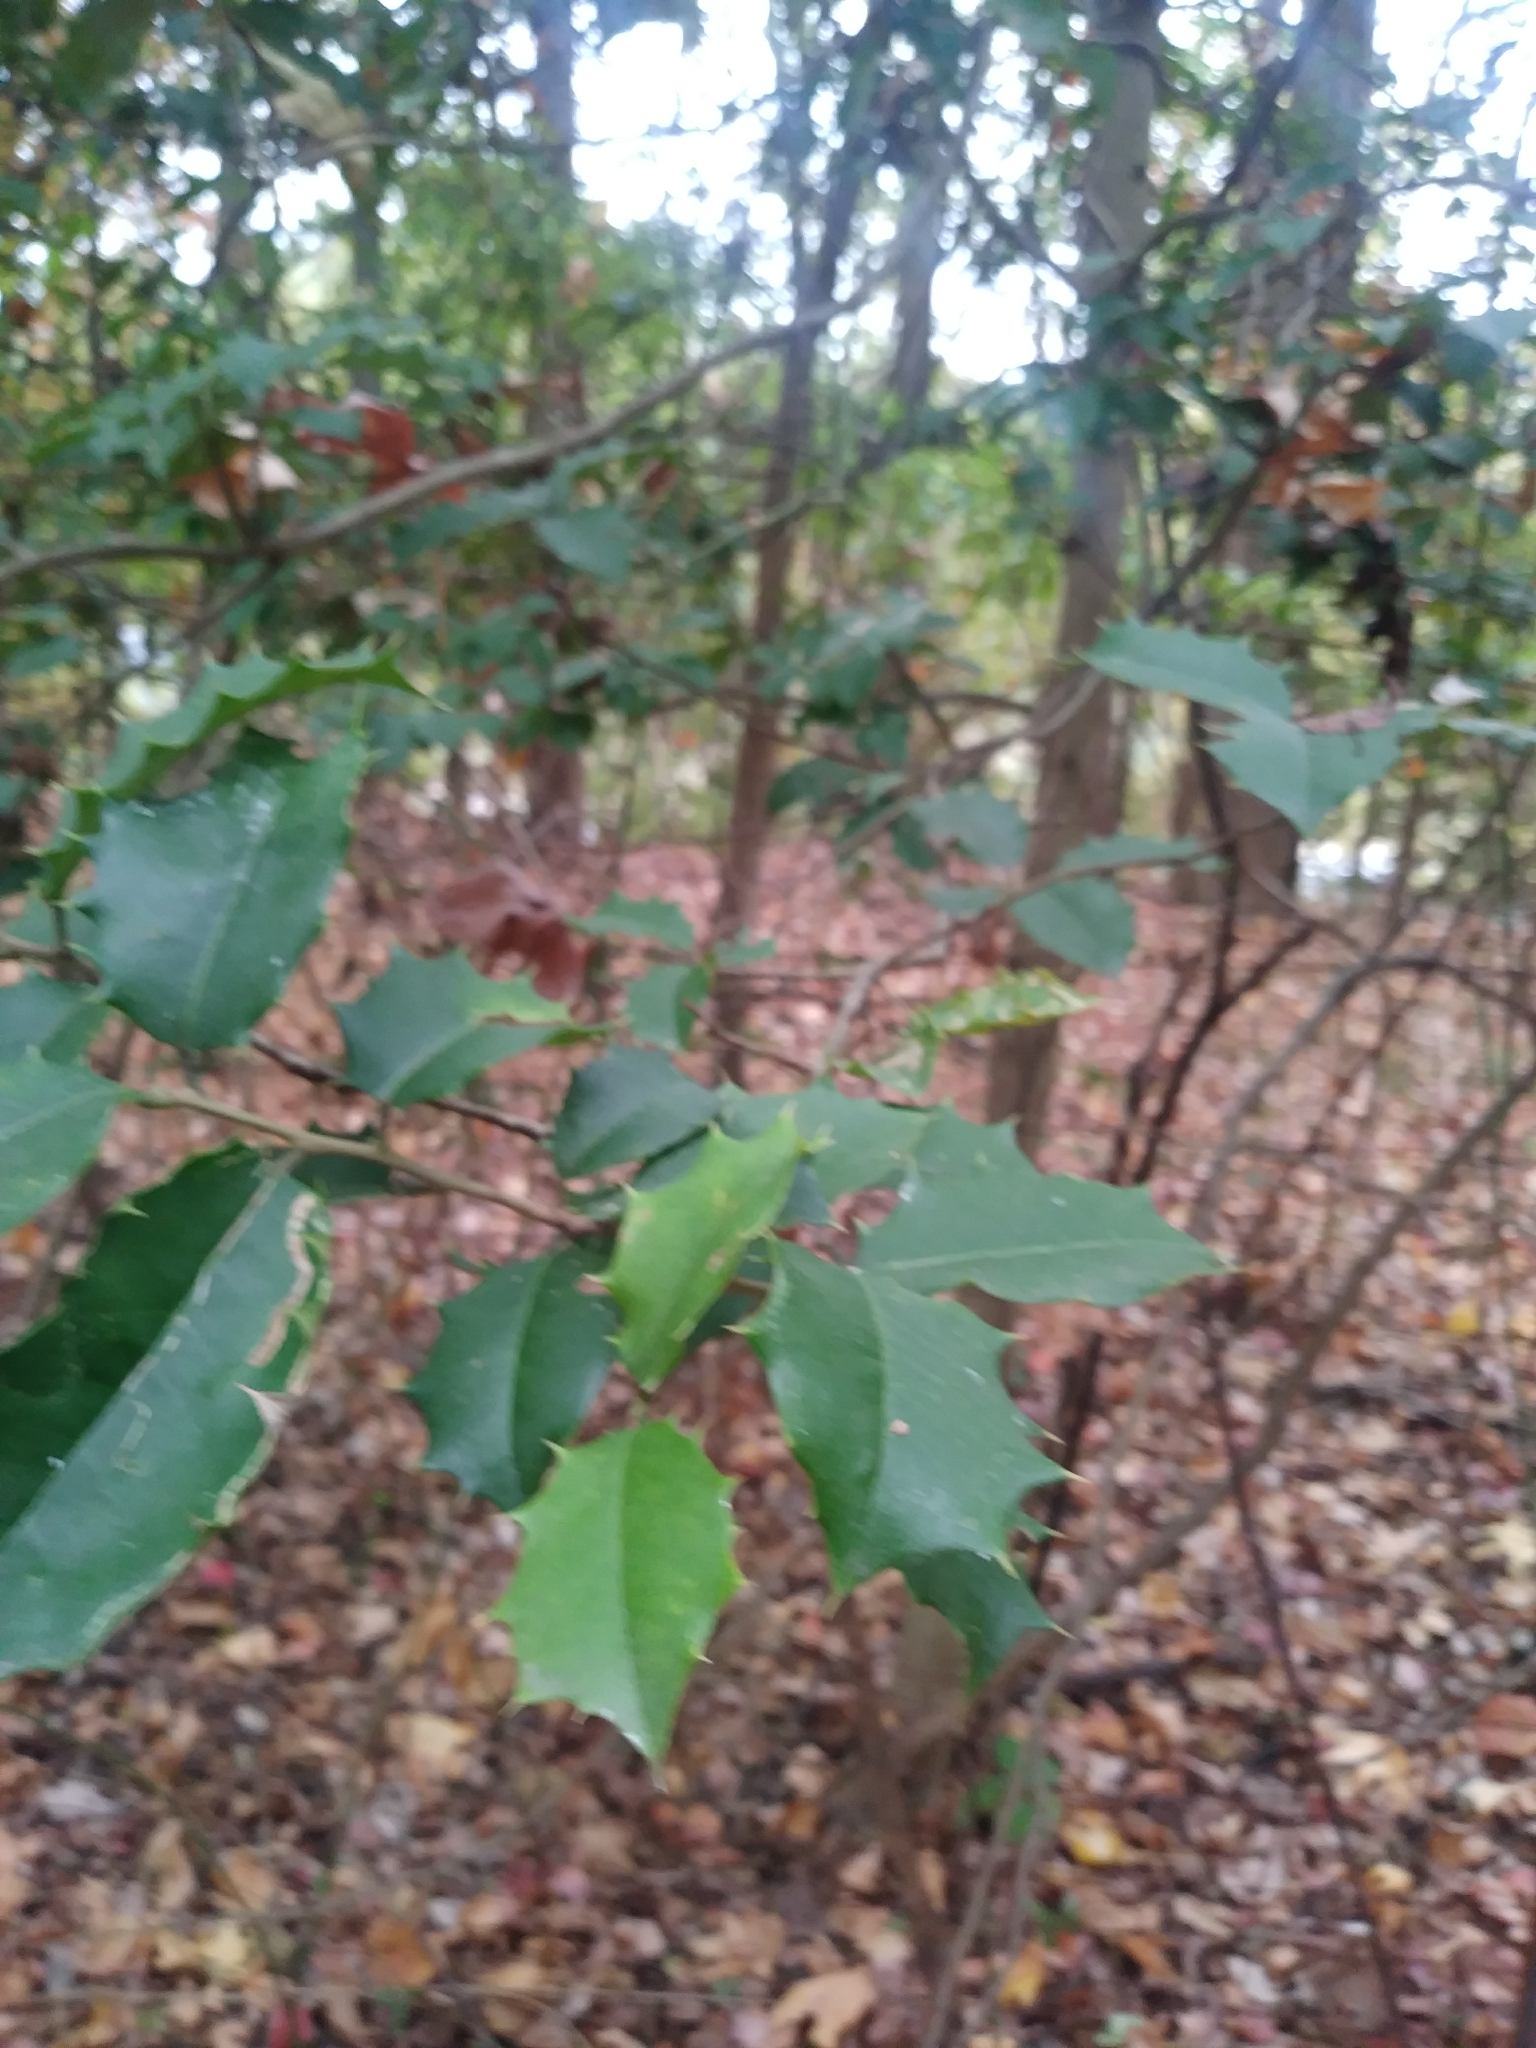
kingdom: Plantae
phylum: Tracheophyta
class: Magnoliopsida
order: Aquifoliales
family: Aquifoliaceae
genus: Ilex
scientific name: Ilex opaca
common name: American holly
